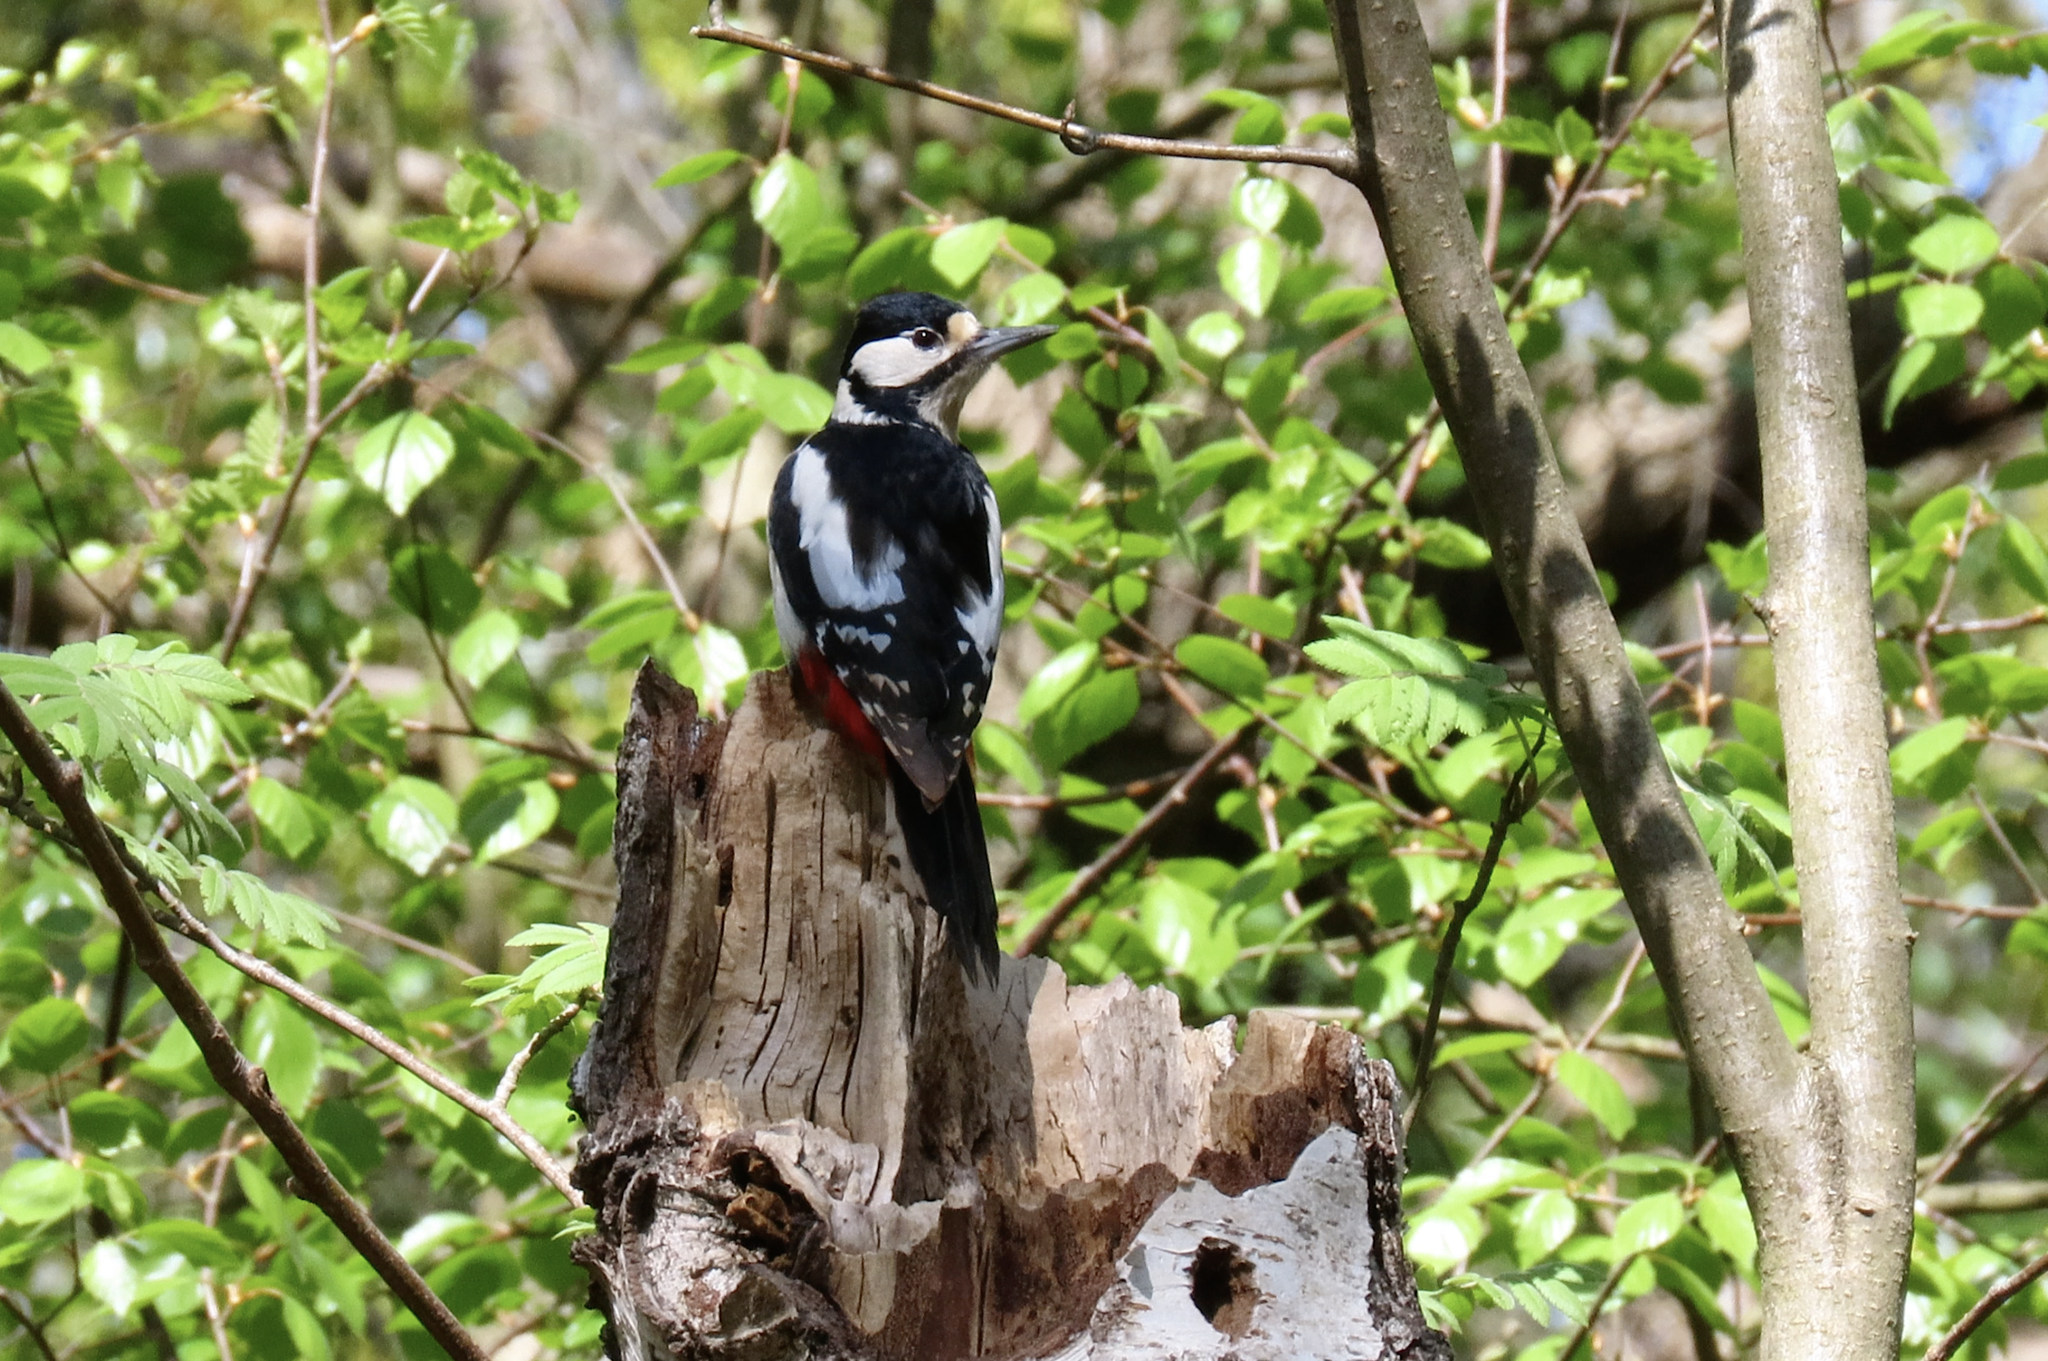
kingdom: Animalia
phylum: Chordata
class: Aves
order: Piciformes
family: Picidae
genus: Dendrocopos
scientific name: Dendrocopos major
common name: Great spotted woodpecker
